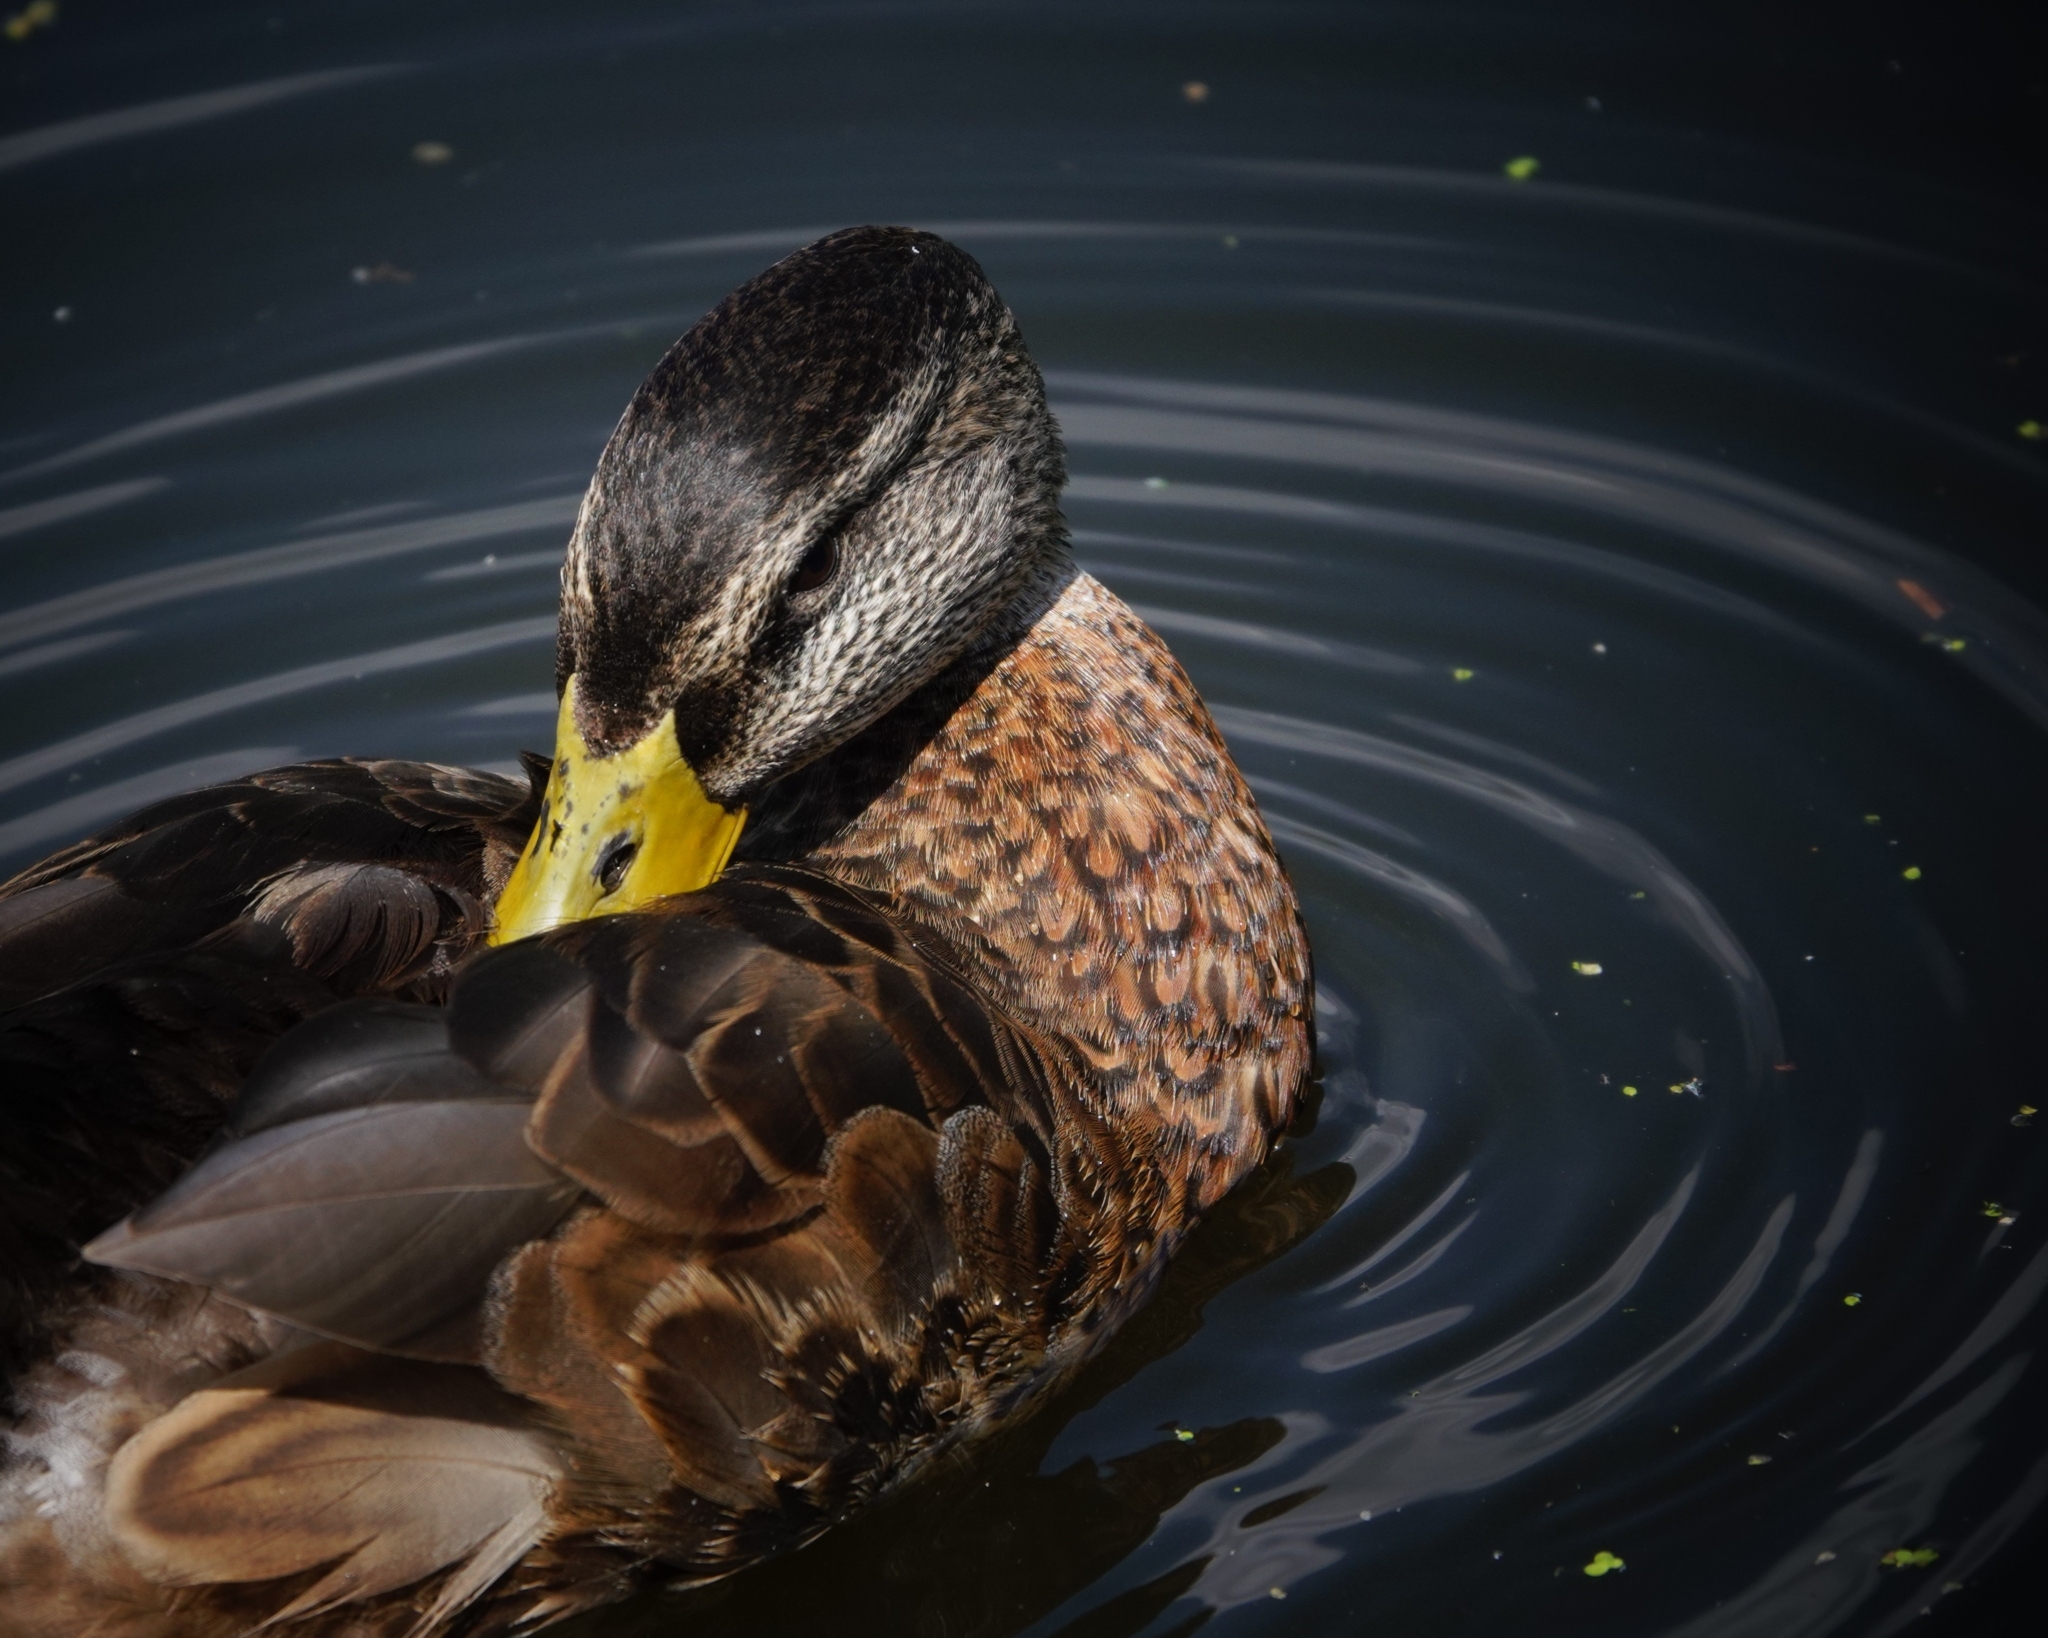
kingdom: Animalia
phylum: Chordata
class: Aves
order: Anseriformes
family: Anatidae
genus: Anas
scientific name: Anas platyrhynchos
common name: Mallard
